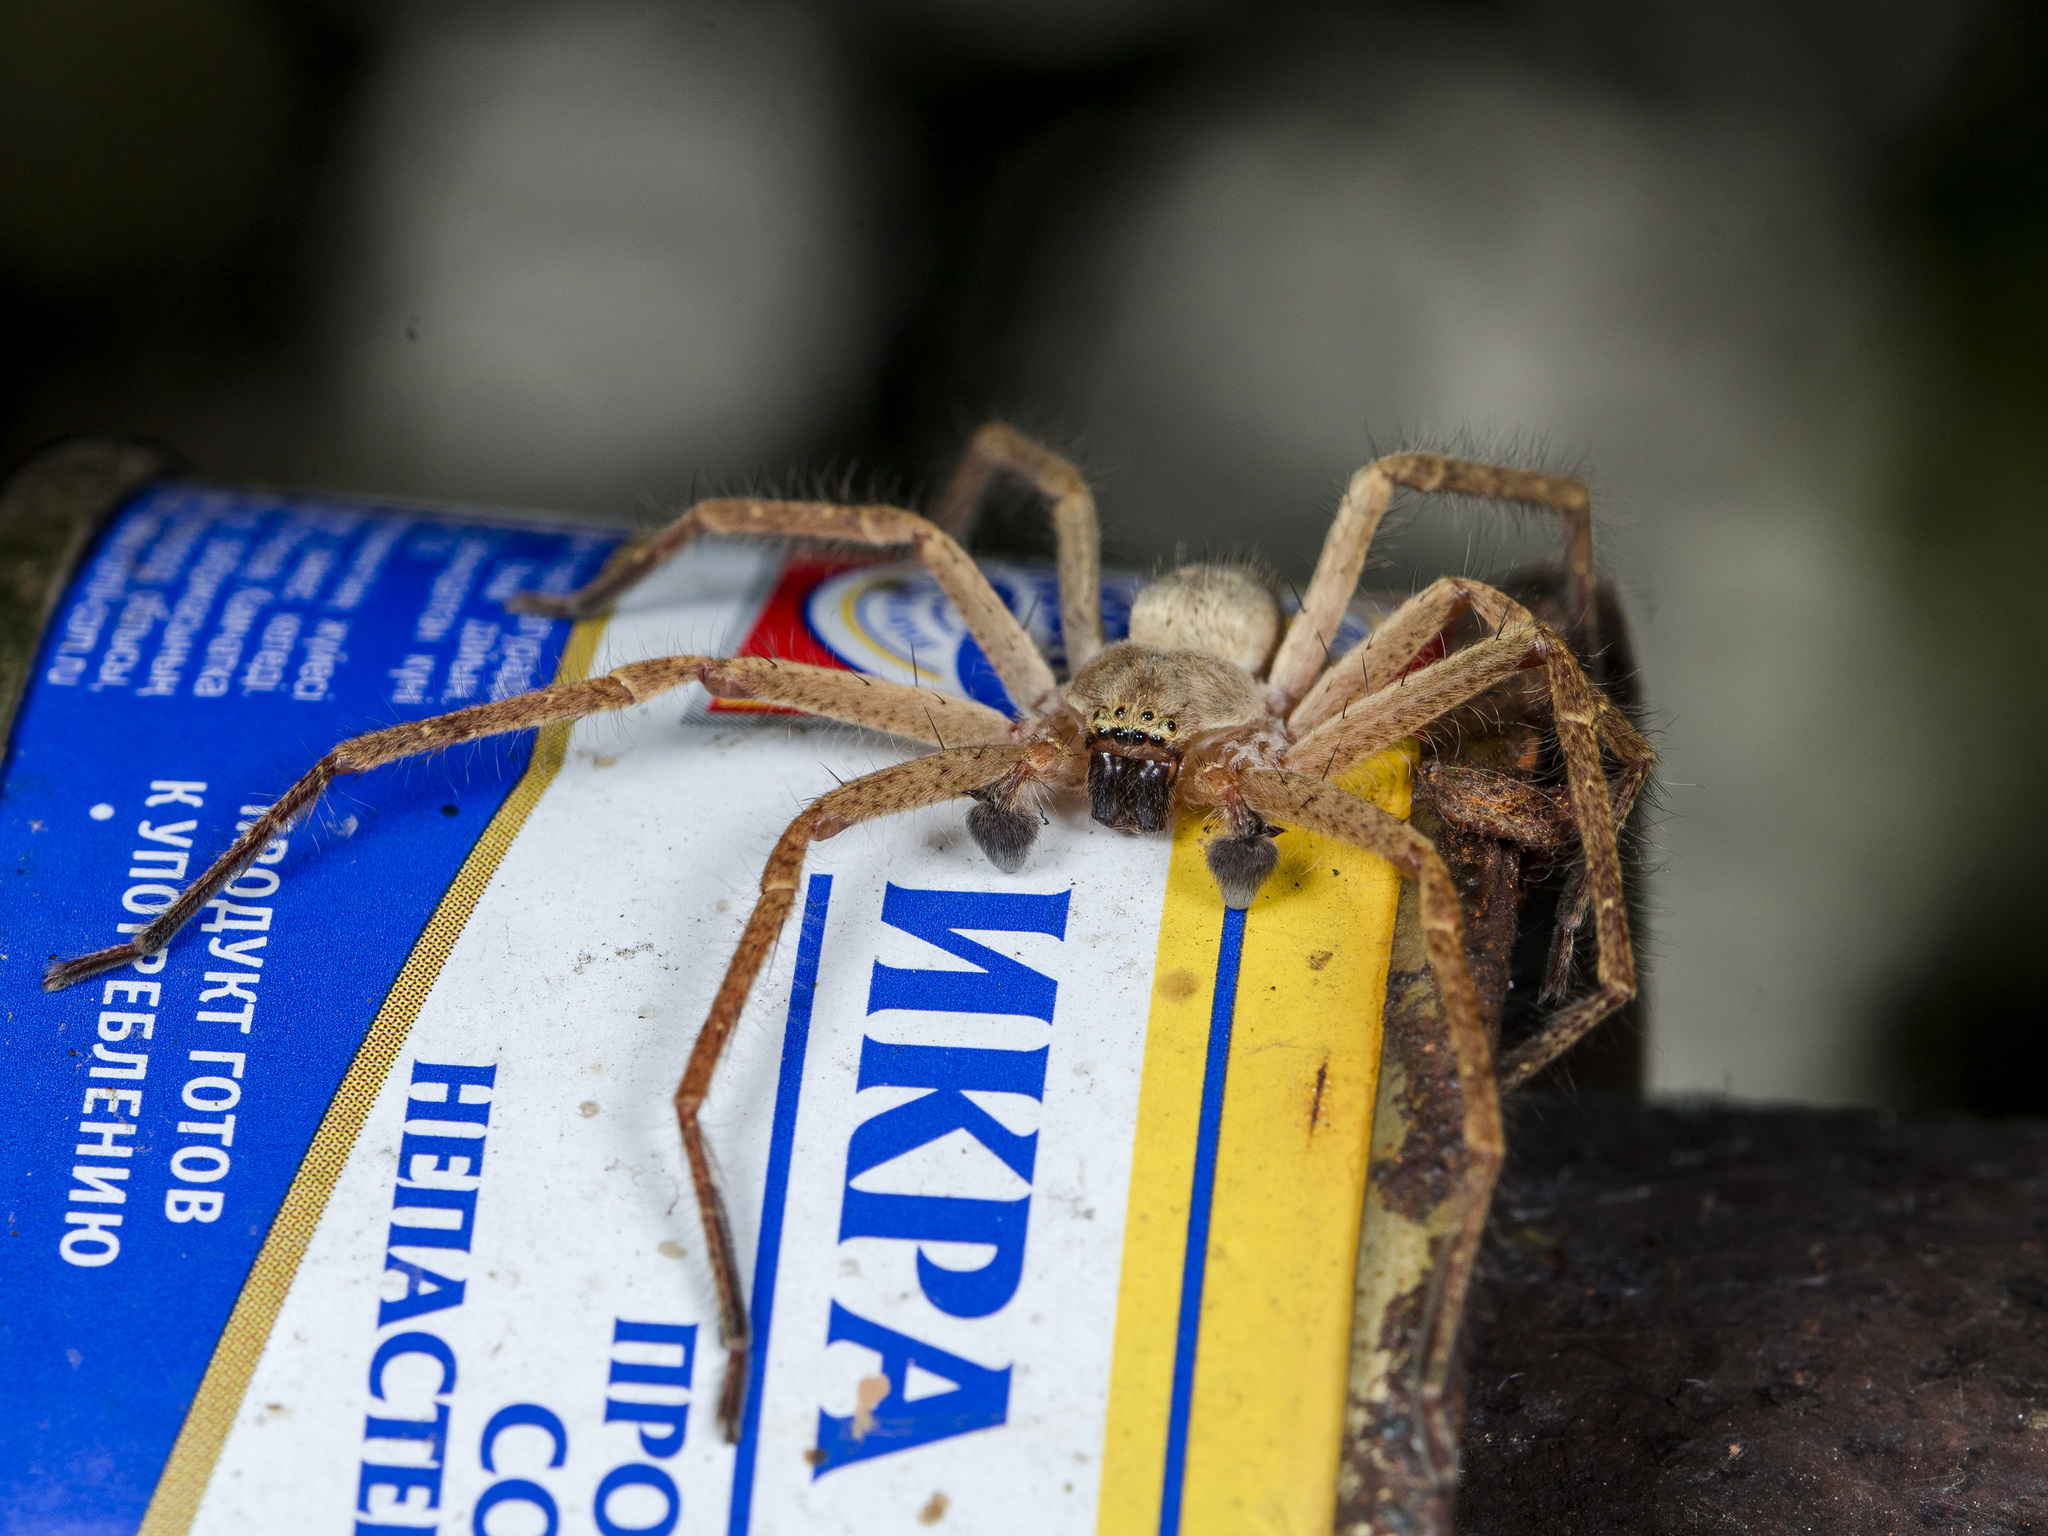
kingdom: Animalia
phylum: Arthropoda
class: Arachnida
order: Araneae
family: Sparassidae
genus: Olios
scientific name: Olios sericeus
